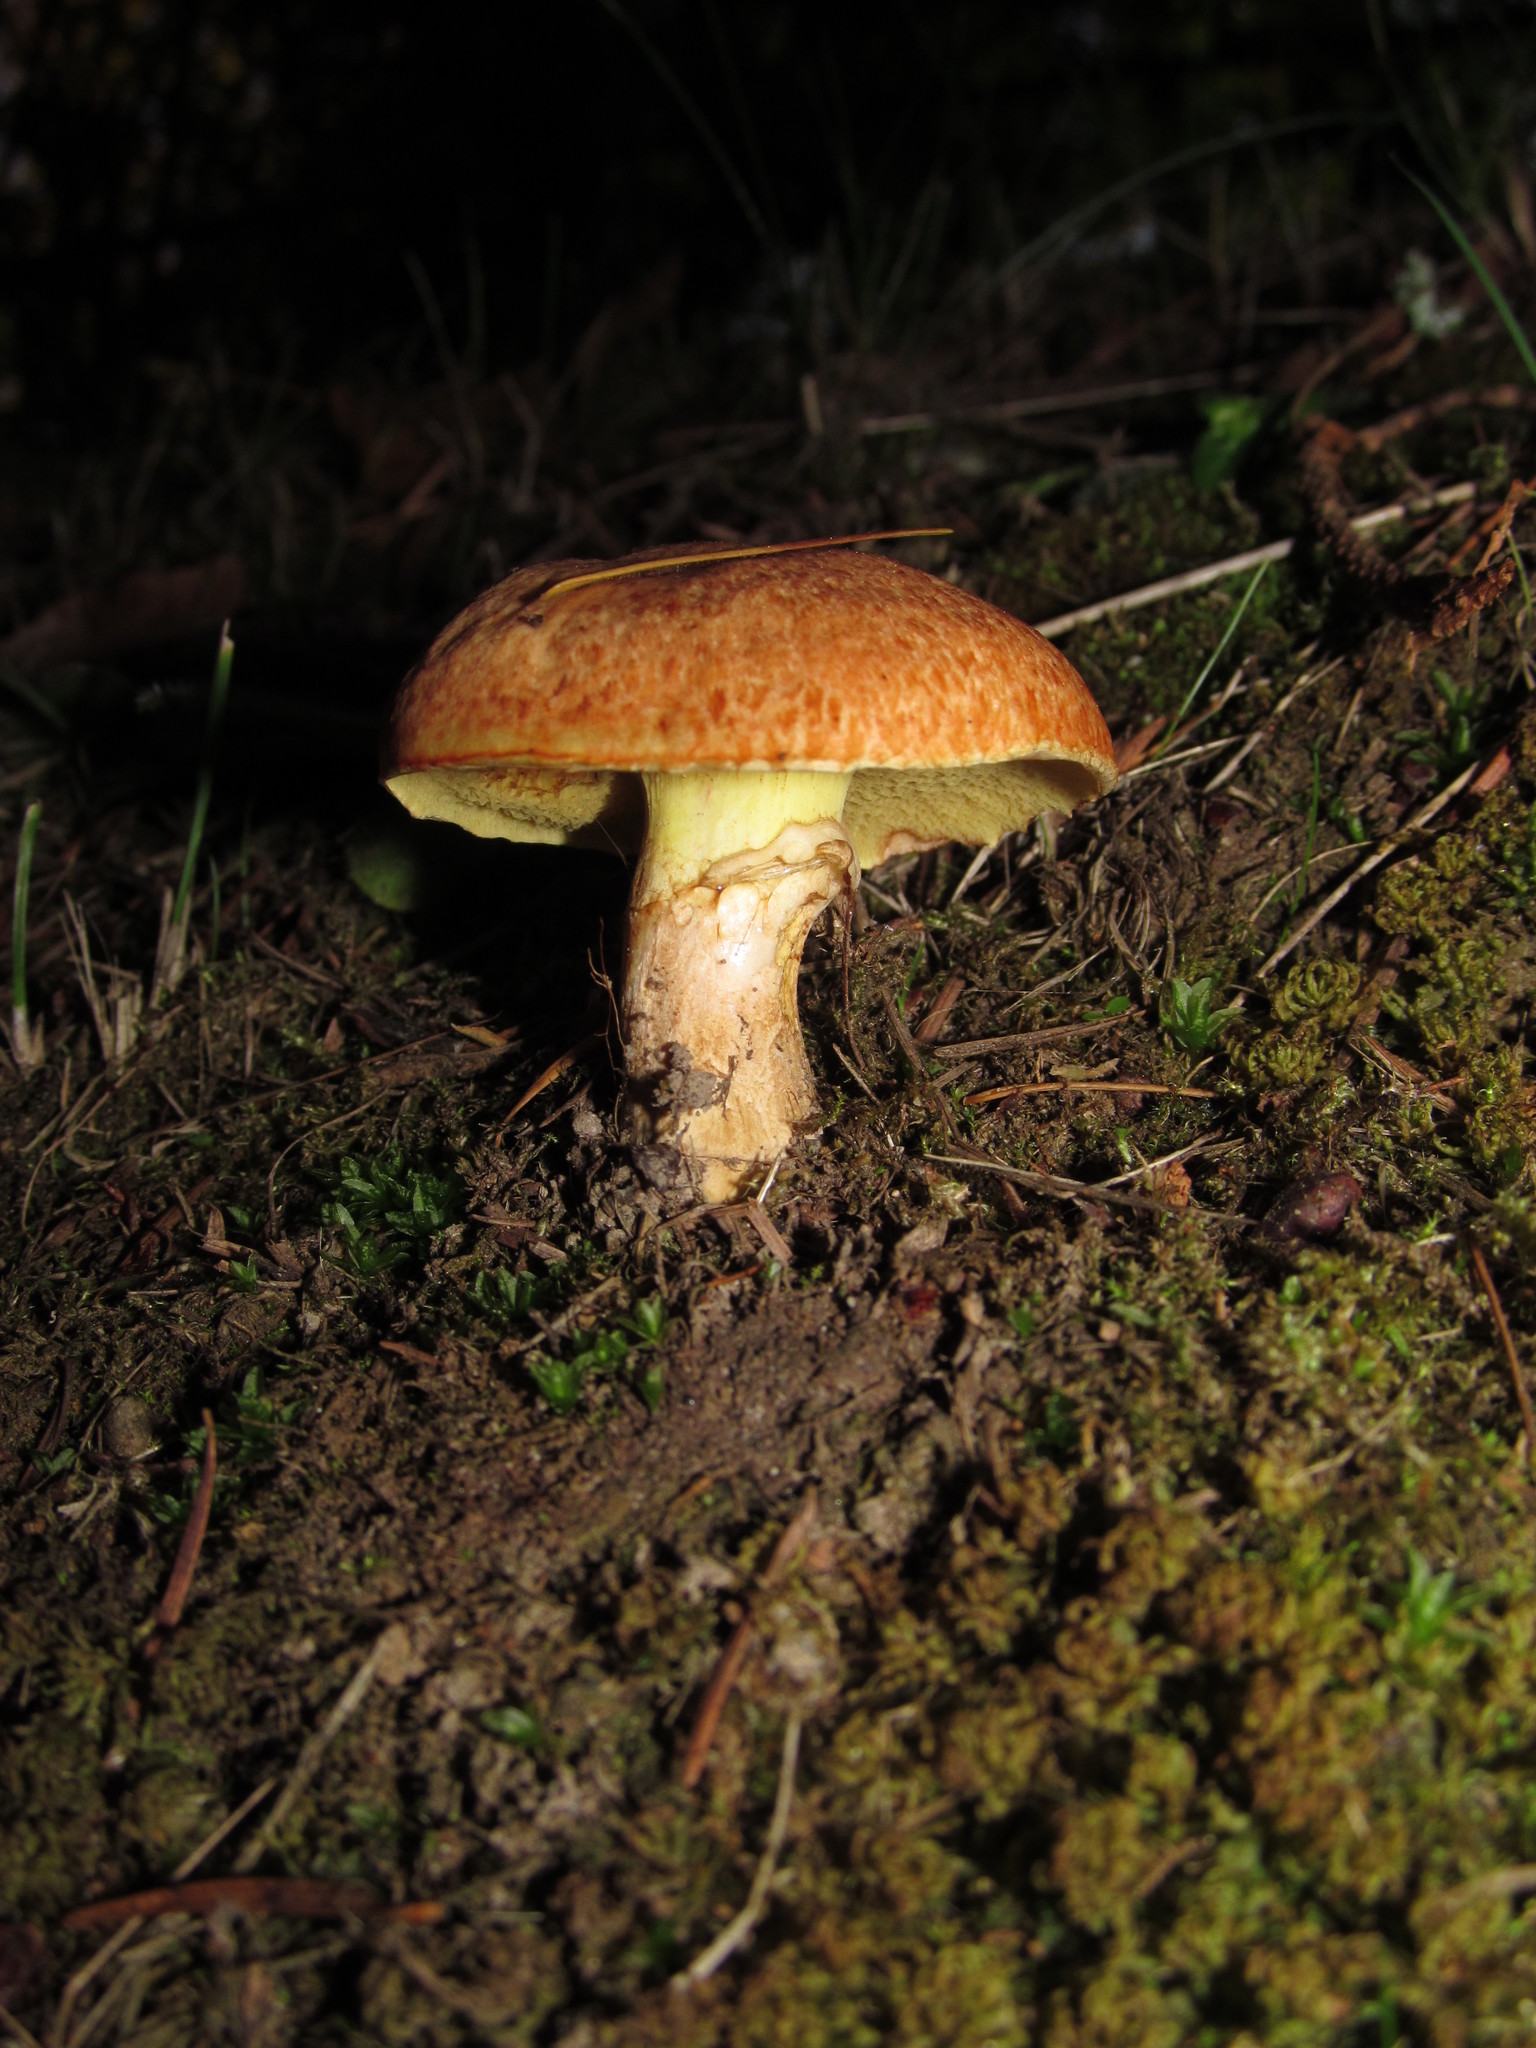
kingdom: Fungi
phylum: Basidiomycota
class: Agaricomycetes
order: Boletales
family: Suillaceae
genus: Suillus
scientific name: Suillus caerulescens
